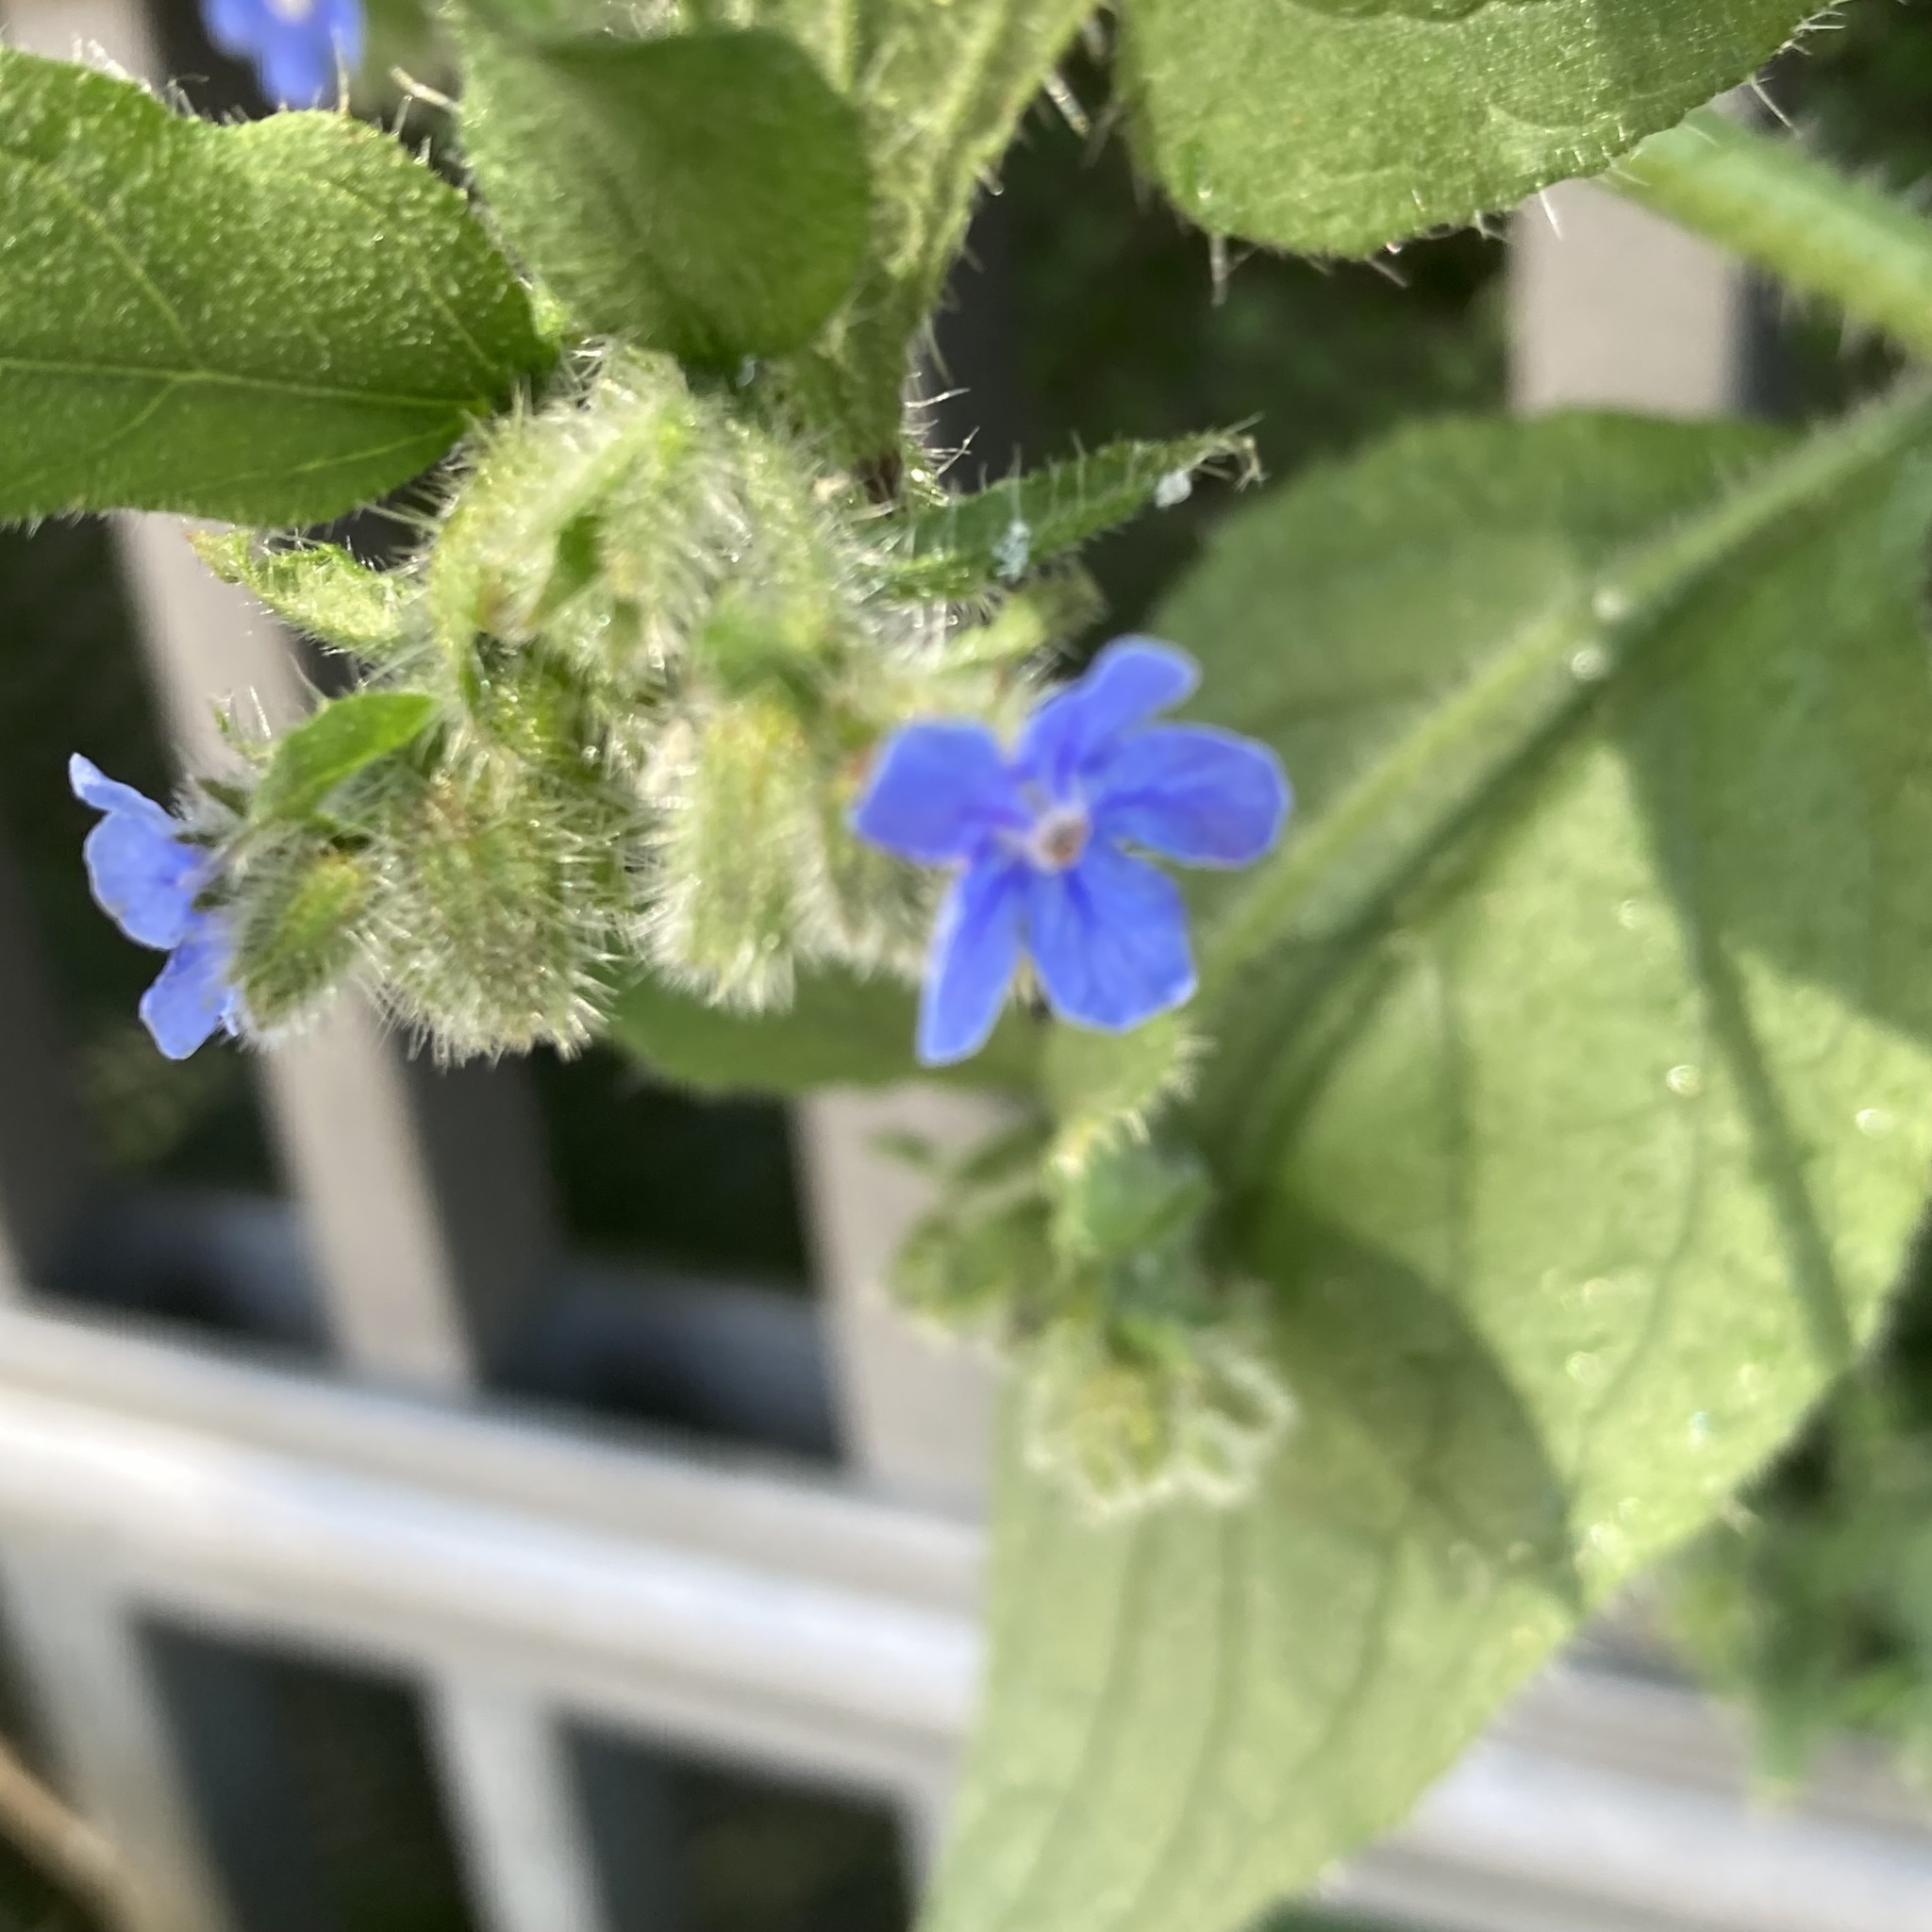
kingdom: Plantae
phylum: Tracheophyta
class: Magnoliopsida
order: Boraginales
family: Boraginaceae
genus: Pentaglottis
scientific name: Pentaglottis sempervirens
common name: Green alkanet
